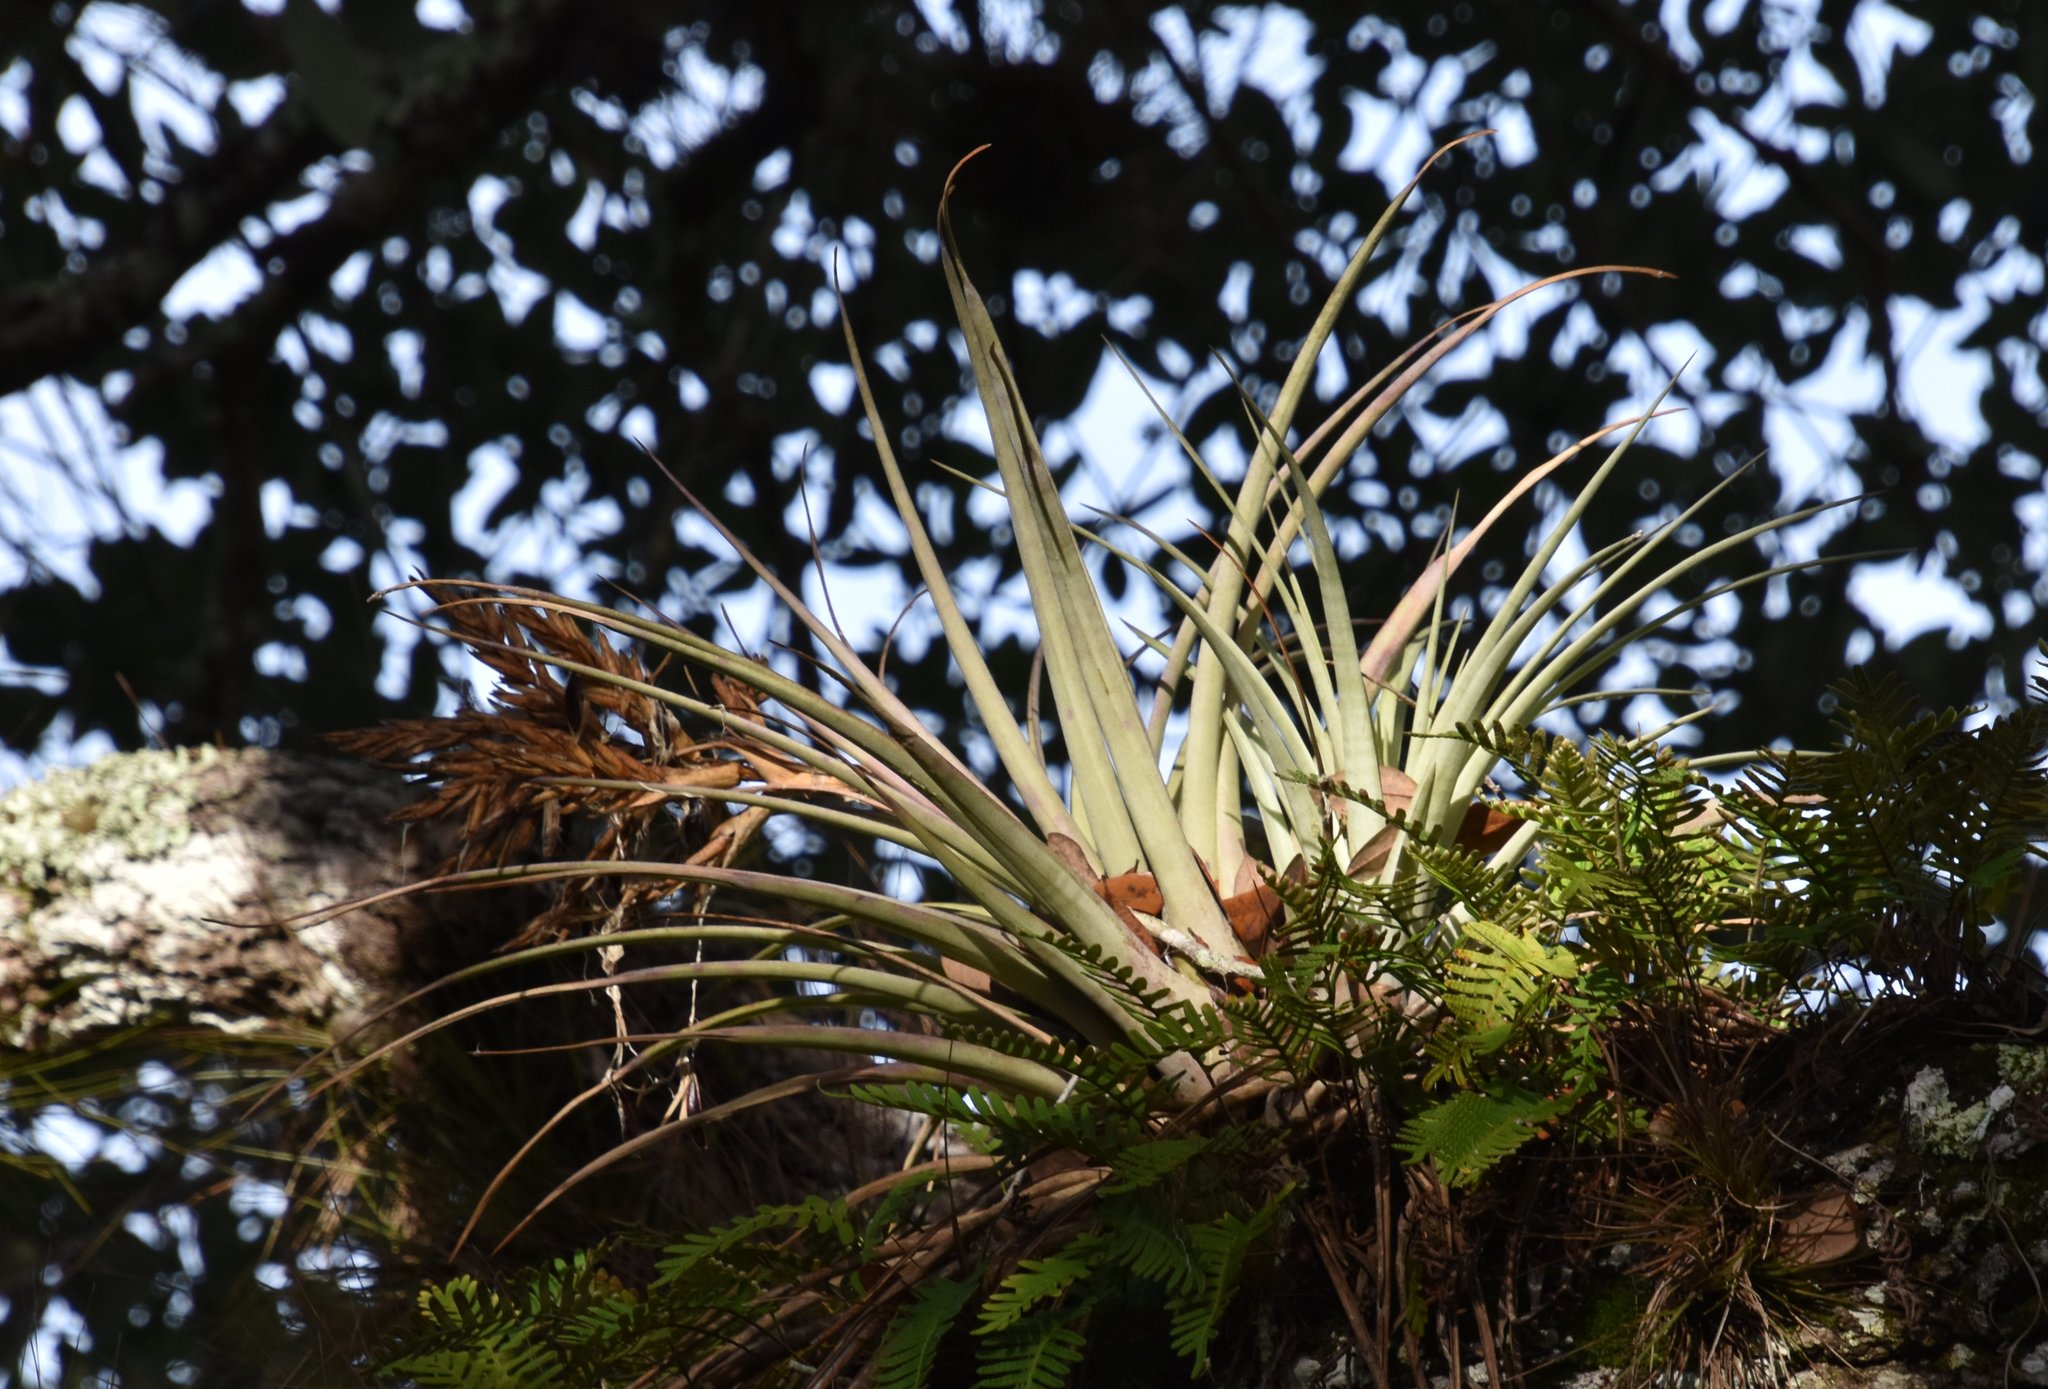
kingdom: Plantae
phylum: Tracheophyta
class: Liliopsida
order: Poales
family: Bromeliaceae
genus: Tillandsia
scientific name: Tillandsia fasciculata
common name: Giant airplant
